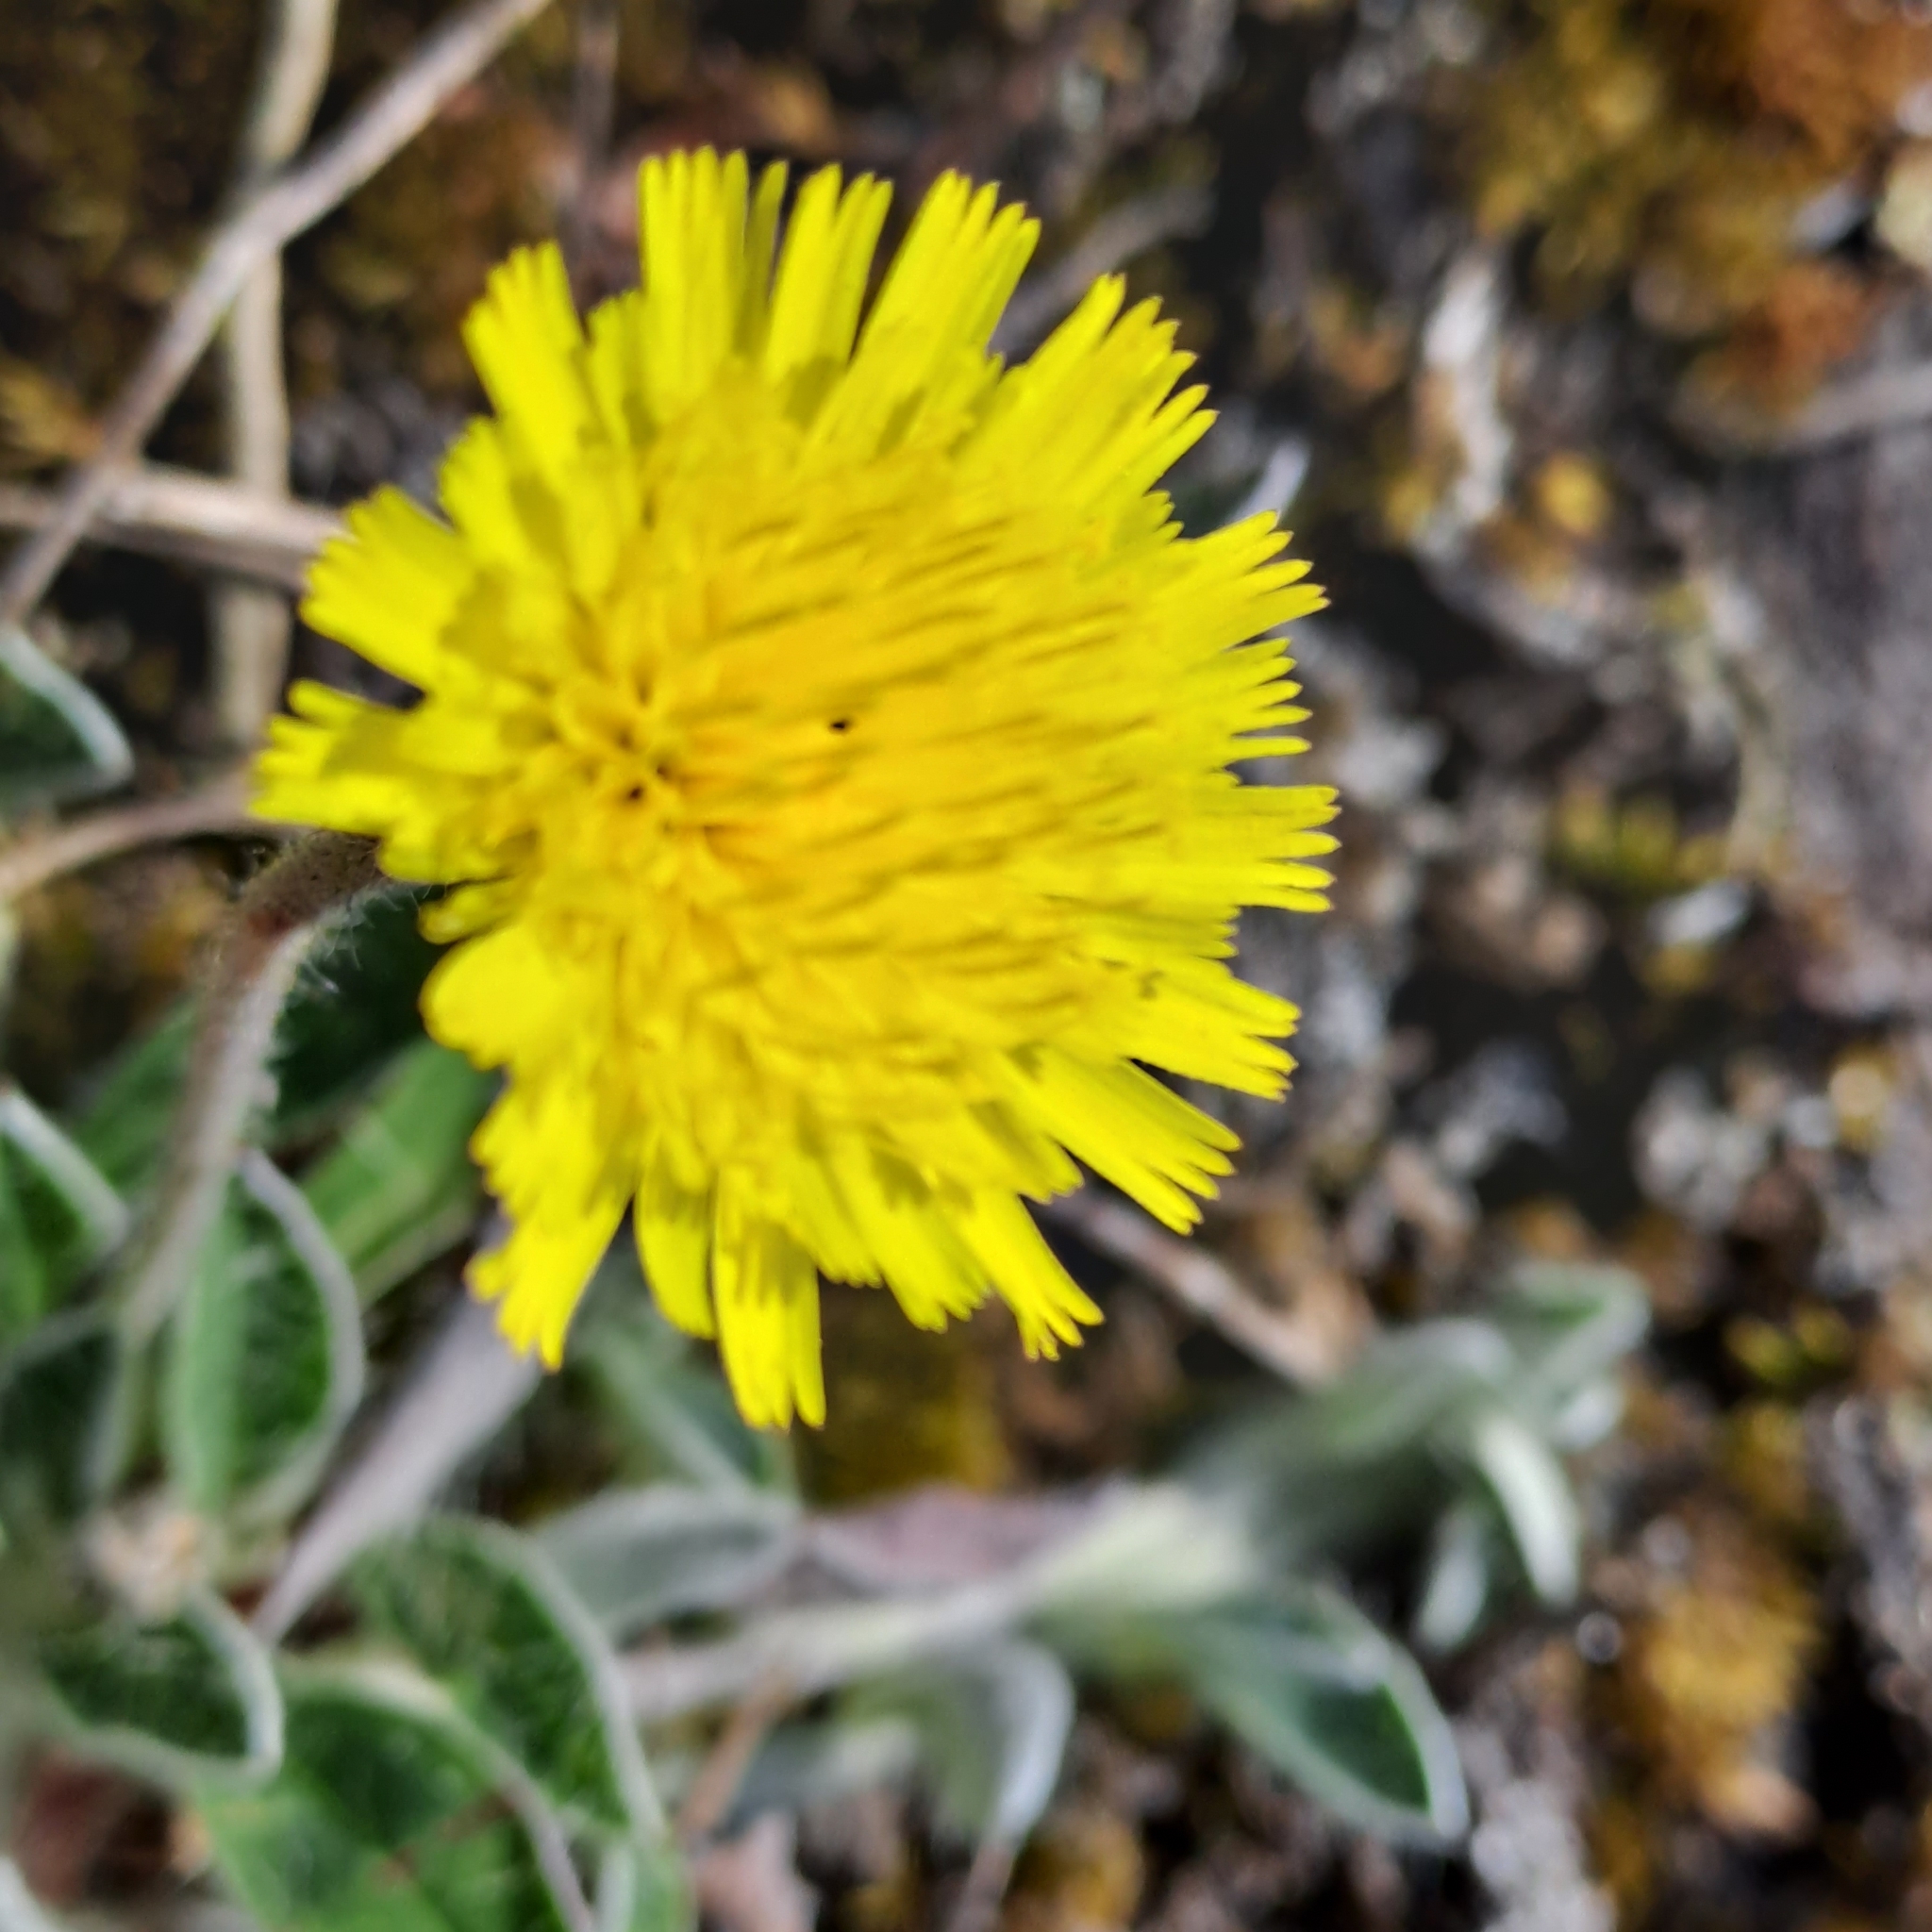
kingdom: Plantae
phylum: Tracheophyta
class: Magnoliopsida
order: Asterales
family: Asteraceae
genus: Pilosella
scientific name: Pilosella officinarum
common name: Mouse-ear hawkweed
